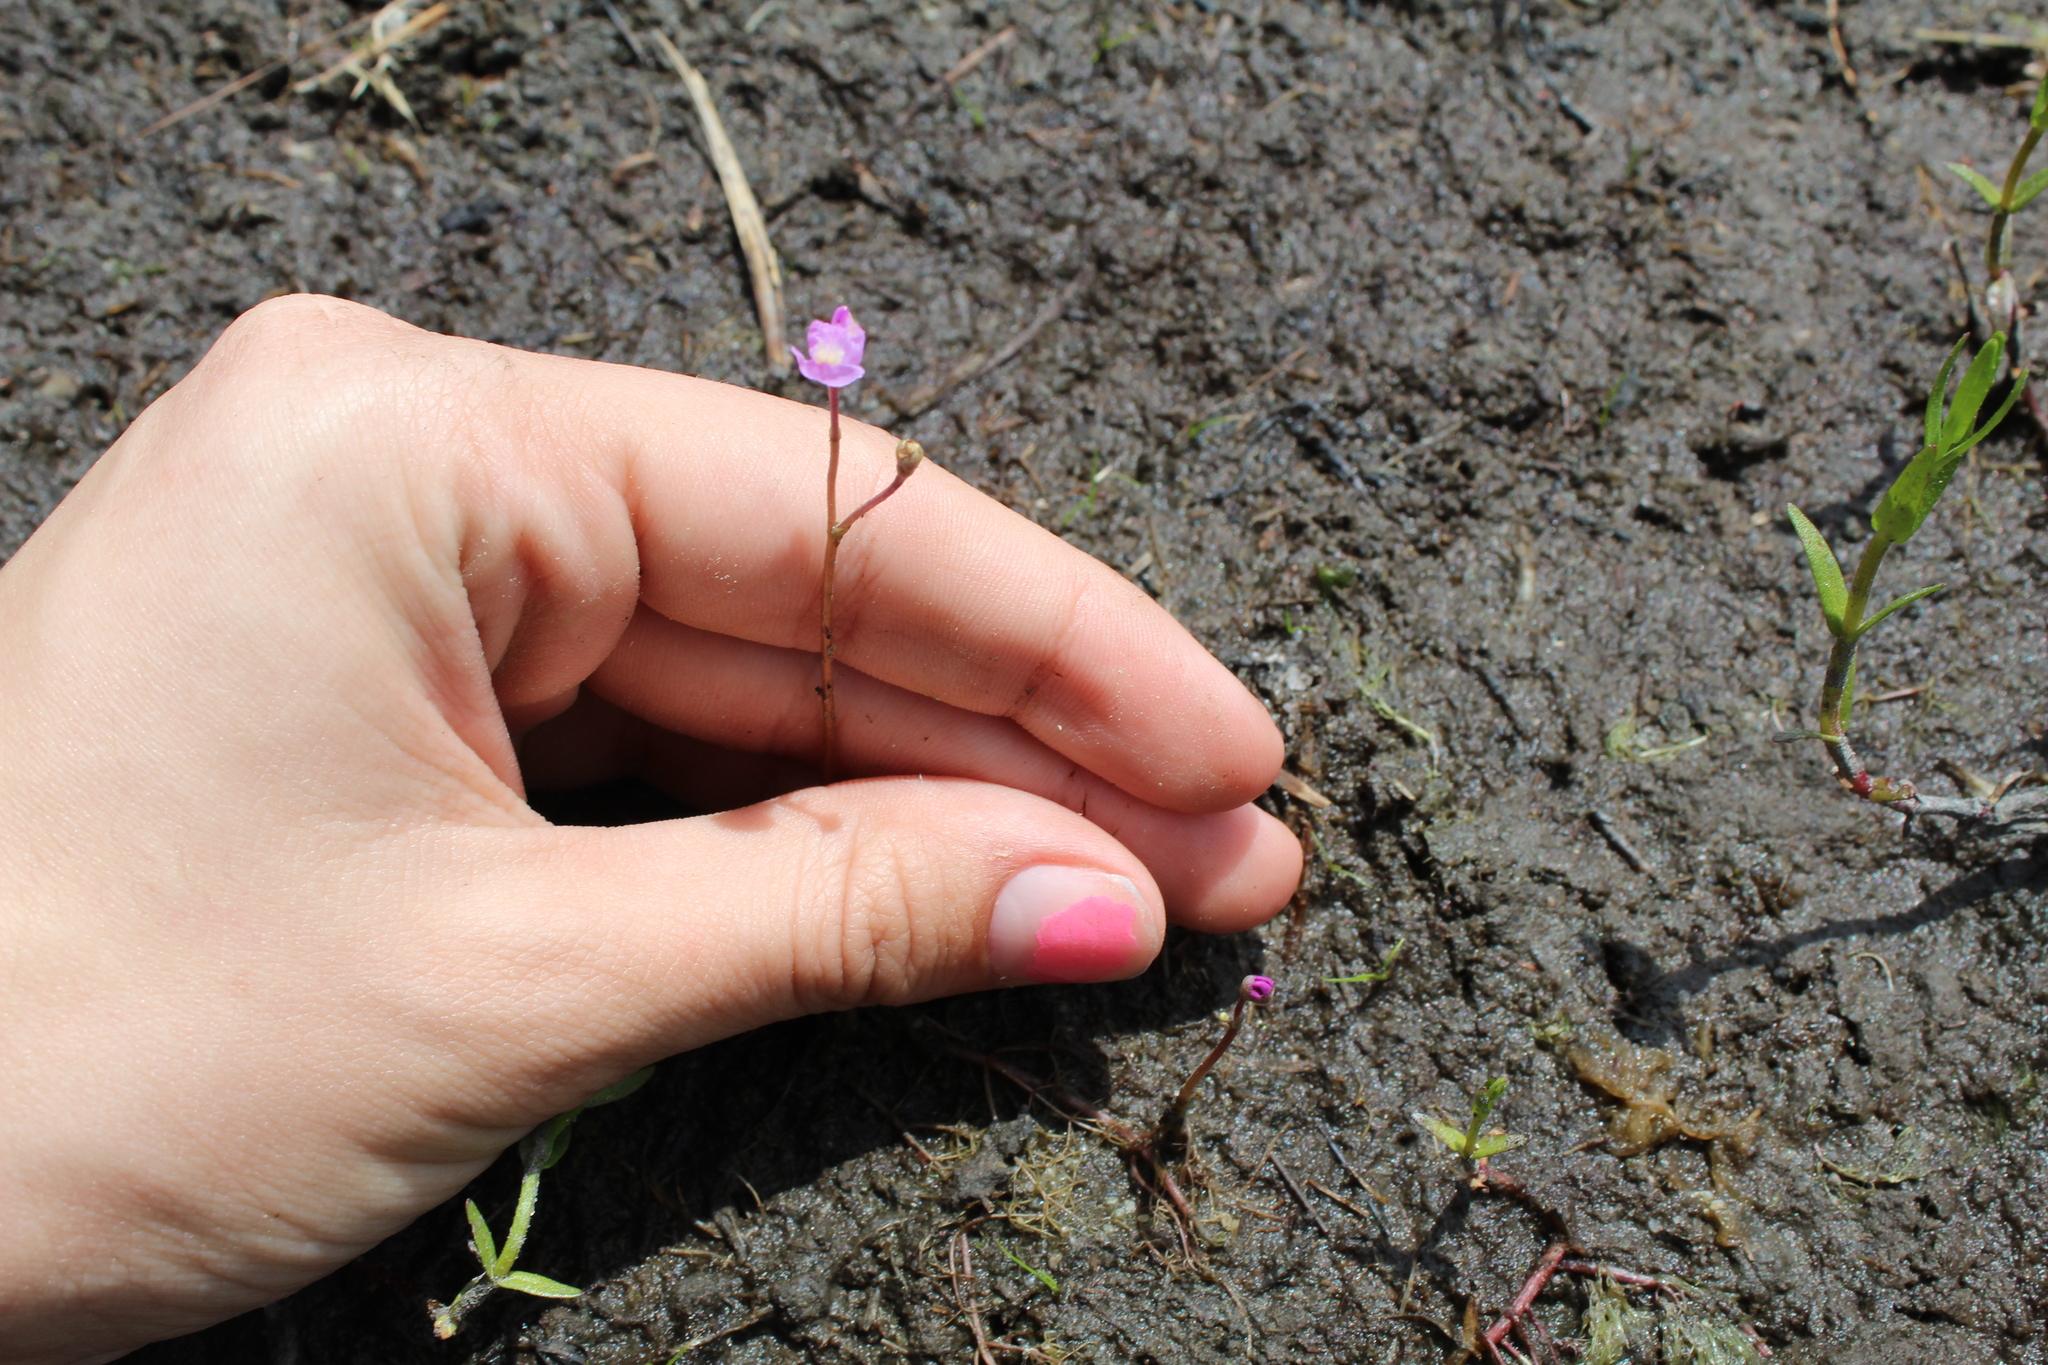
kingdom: Plantae
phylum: Tracheophyta
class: Magnoliopsida
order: Lamiales
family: Lentibulariaceae
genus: Utricularia
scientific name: Utricularia purpurea
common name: Eastern purple bladderwort
